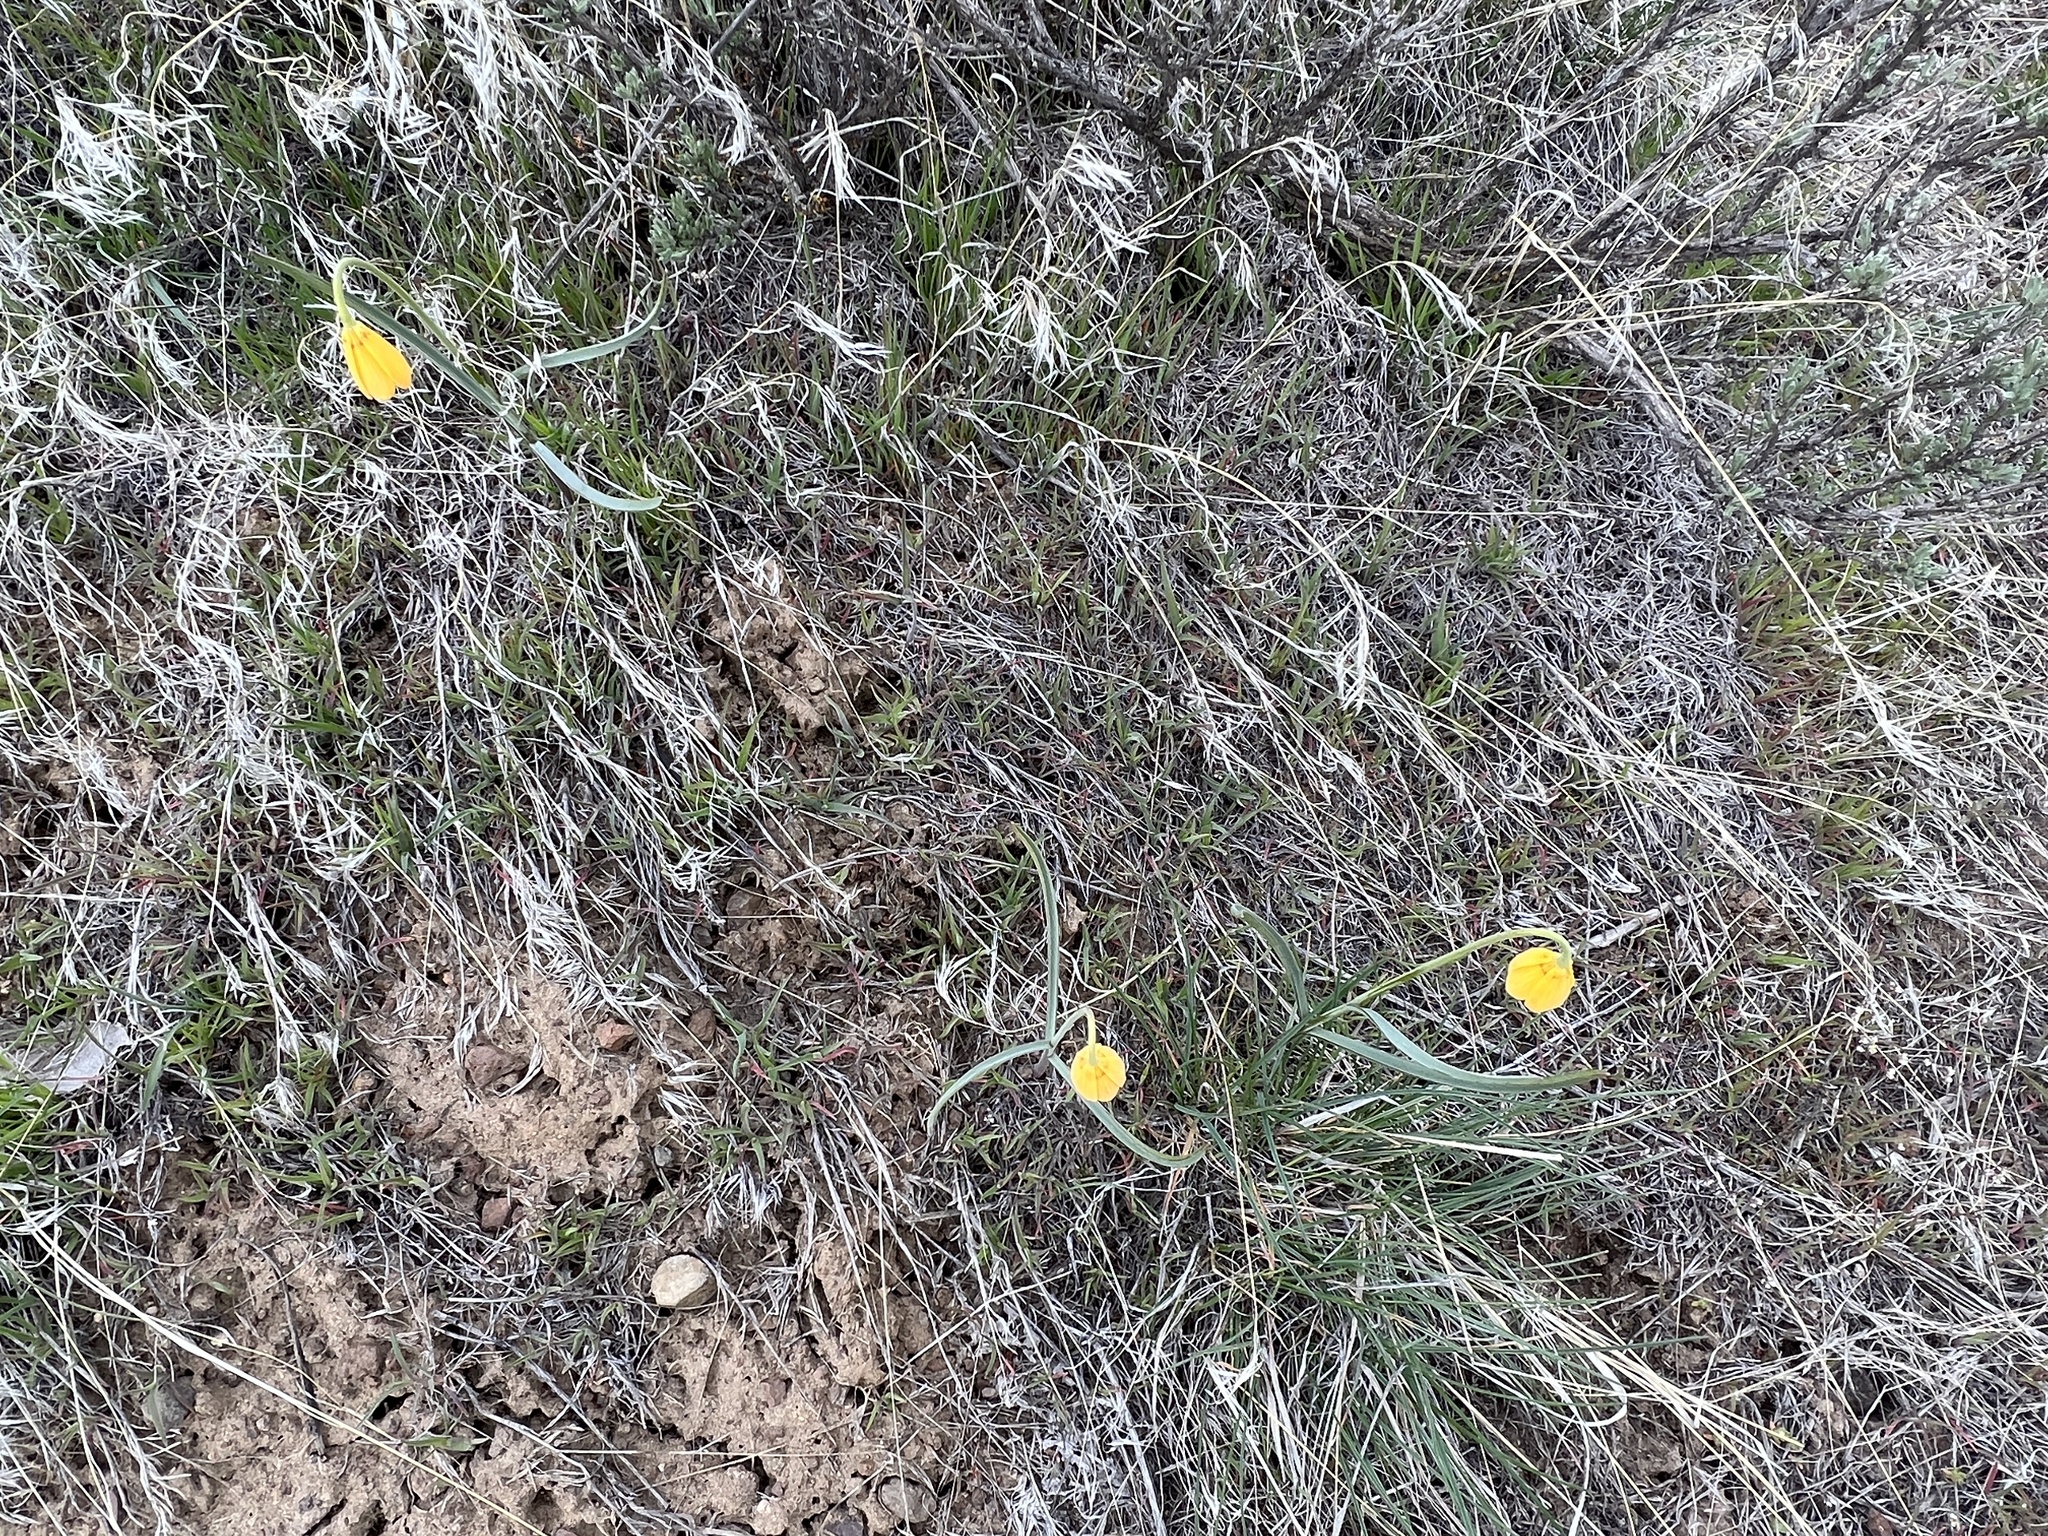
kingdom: Plantae
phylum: Tracheophyta
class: Liliopsida
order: Liliales
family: Liliaceae
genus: Fritillaria
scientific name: Fritillaria pudica
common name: Yellow fritillary
